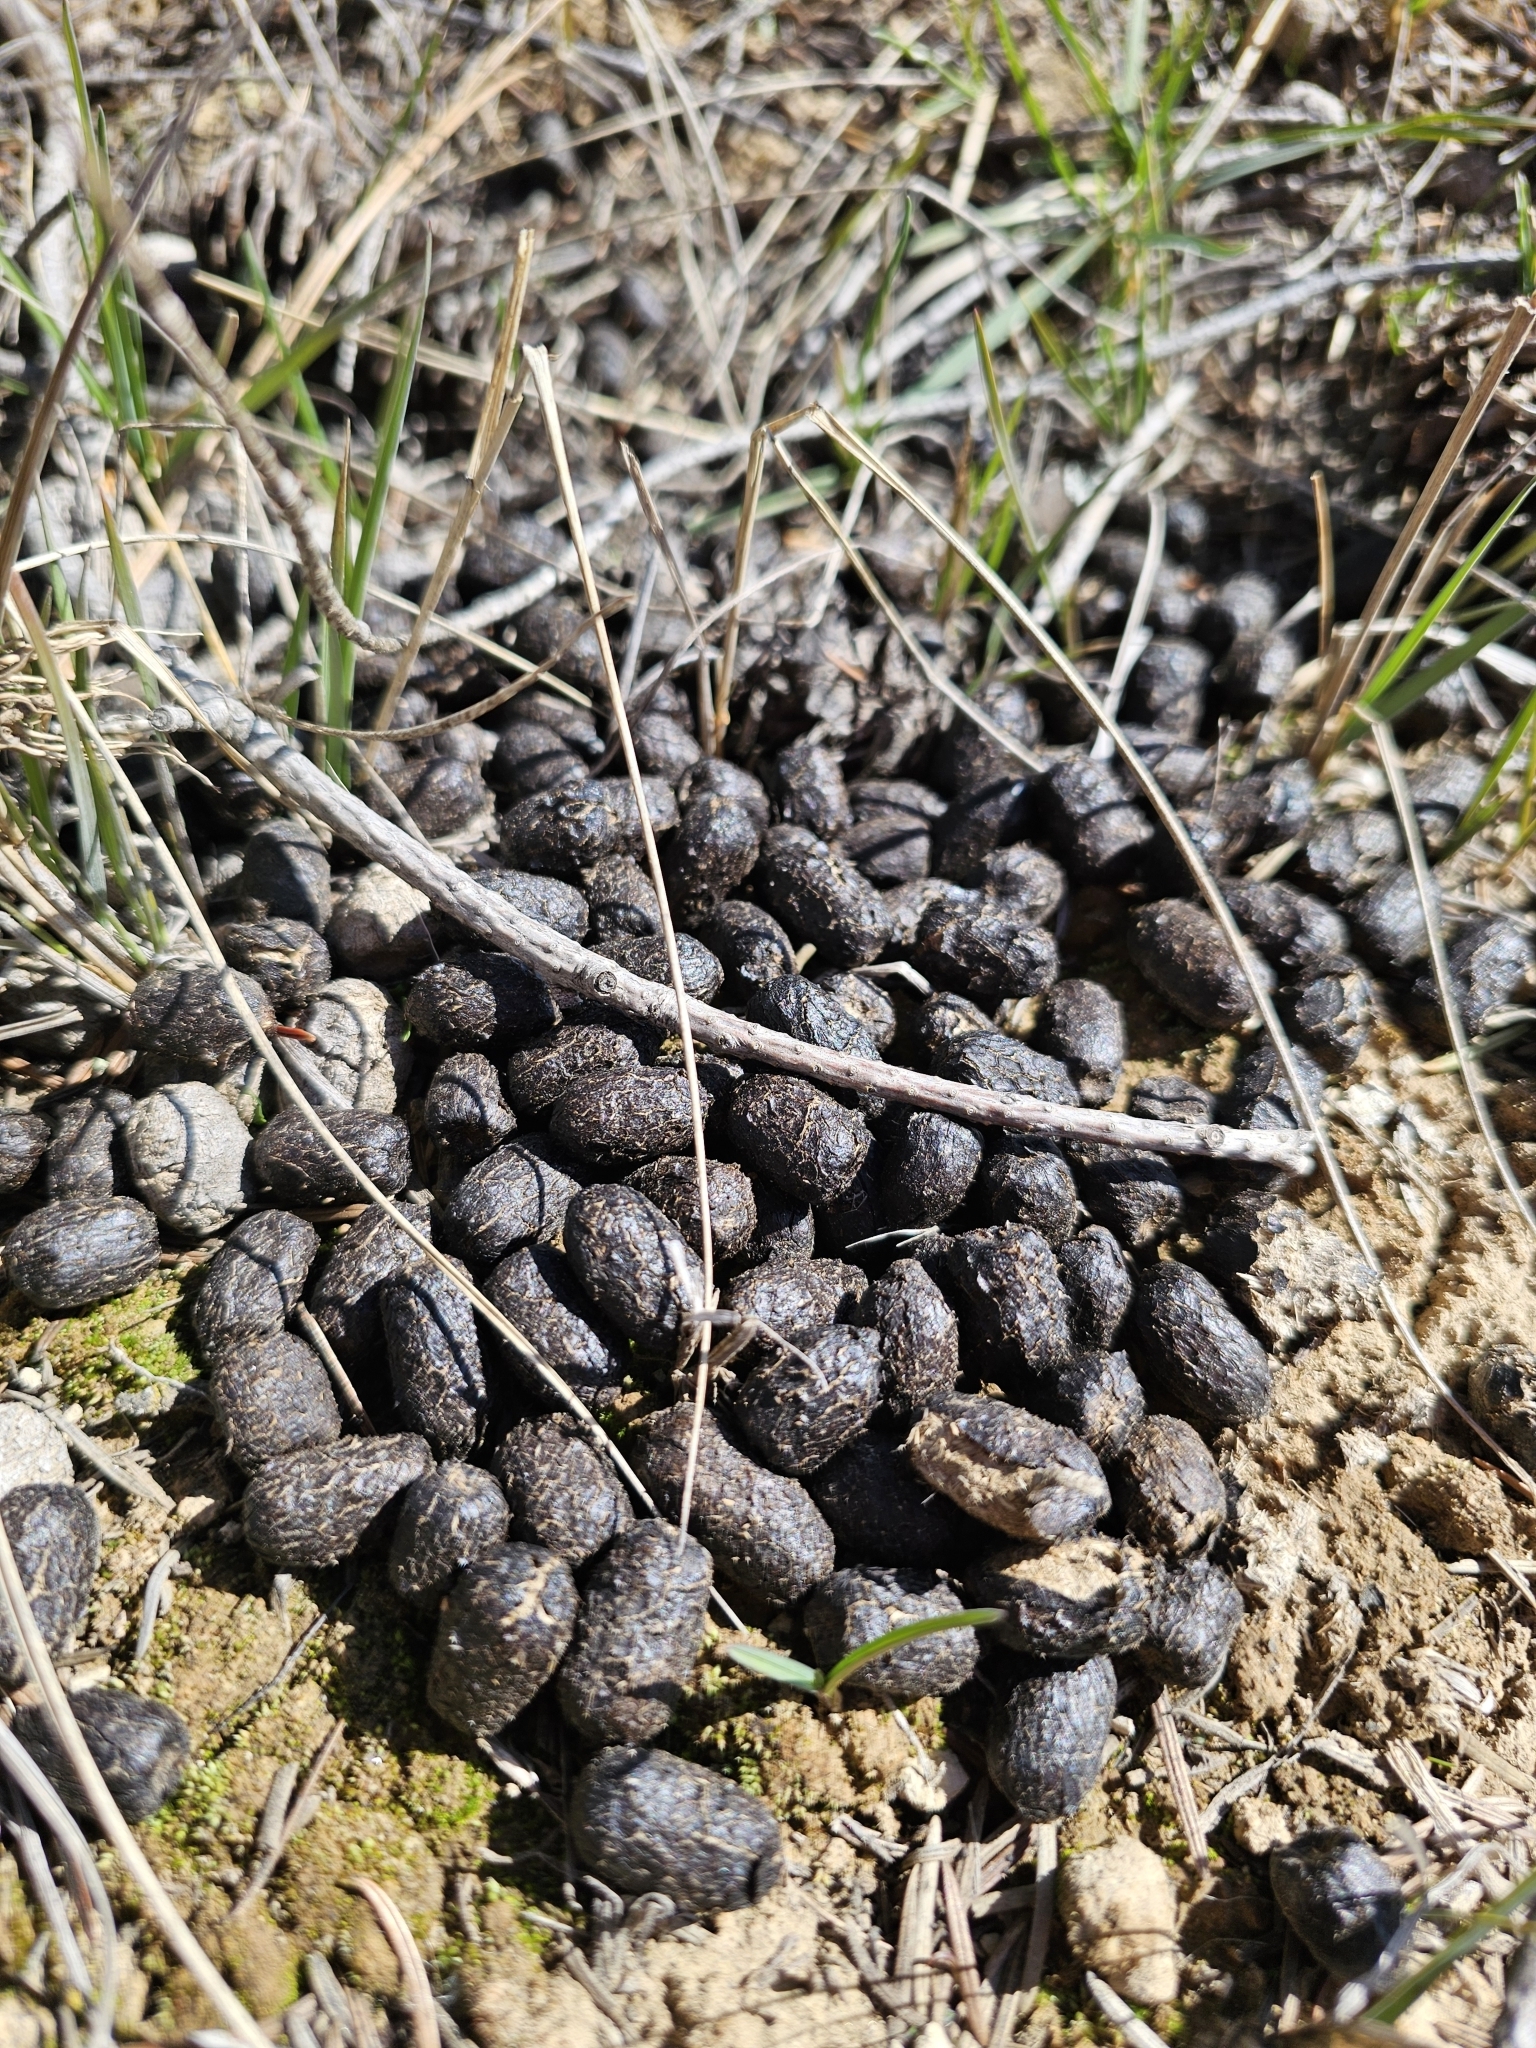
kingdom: Animalia
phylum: Chordata
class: Mammalia
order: Artiodactyla
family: Cervidae
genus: Cervus
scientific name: Cervus elaphus
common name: Red deer
